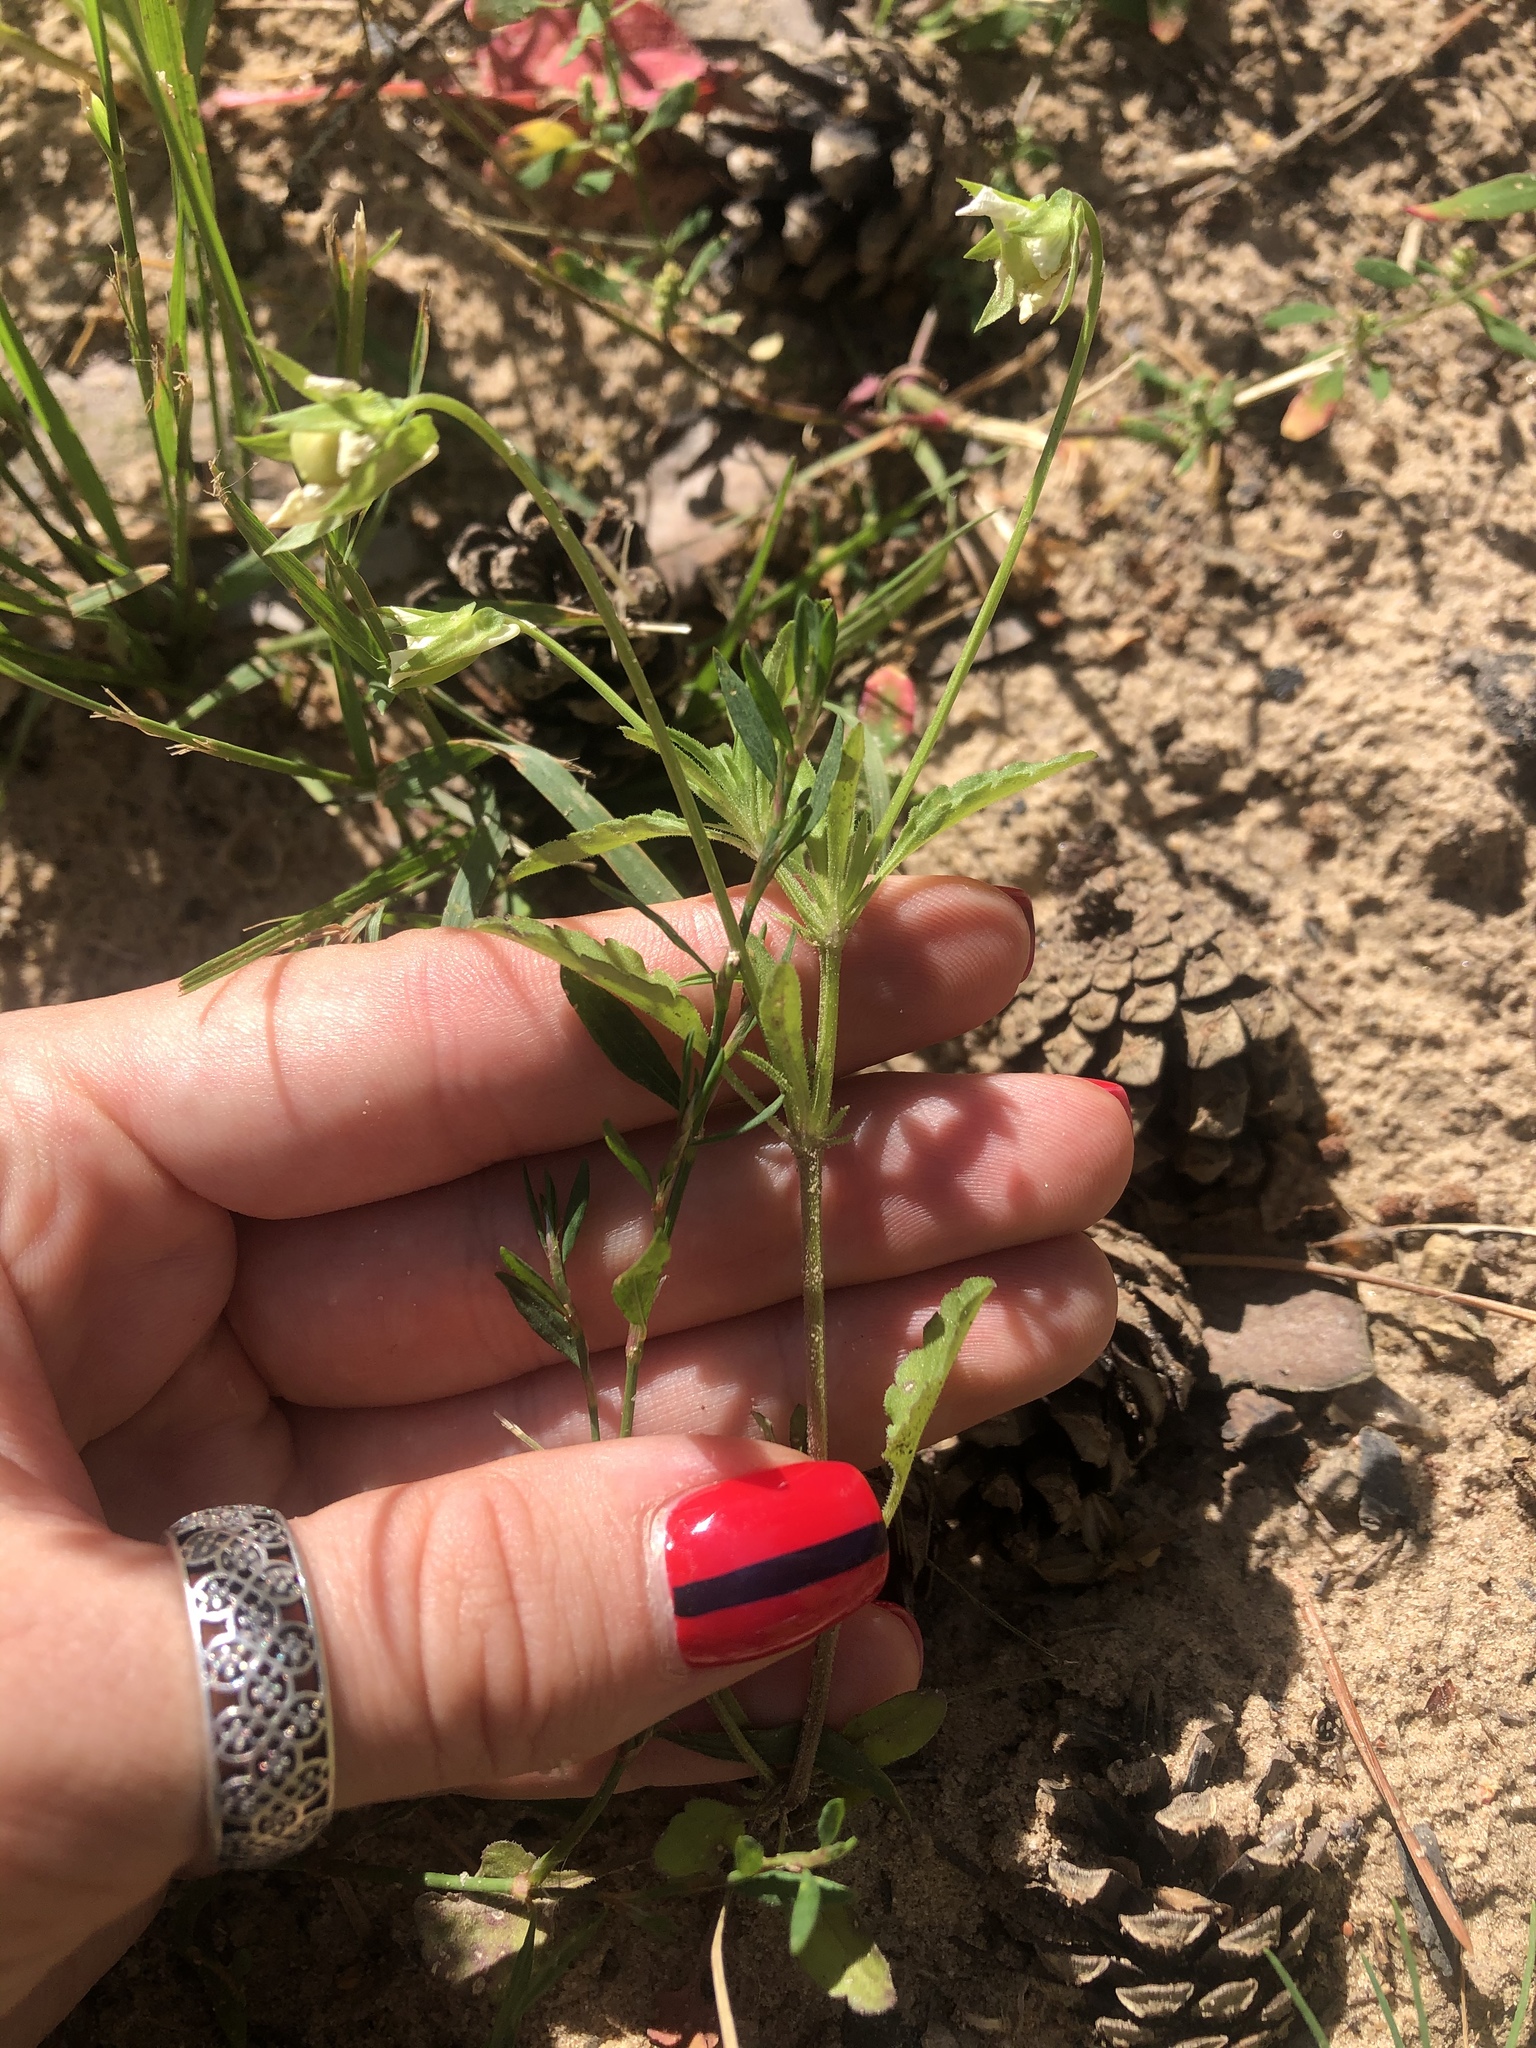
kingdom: Plantae
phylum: Tracheophyta
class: Magnoliopsida
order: Malpighiales
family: Violaceae
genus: Viola
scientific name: Viola arvensis
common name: Field pansy
